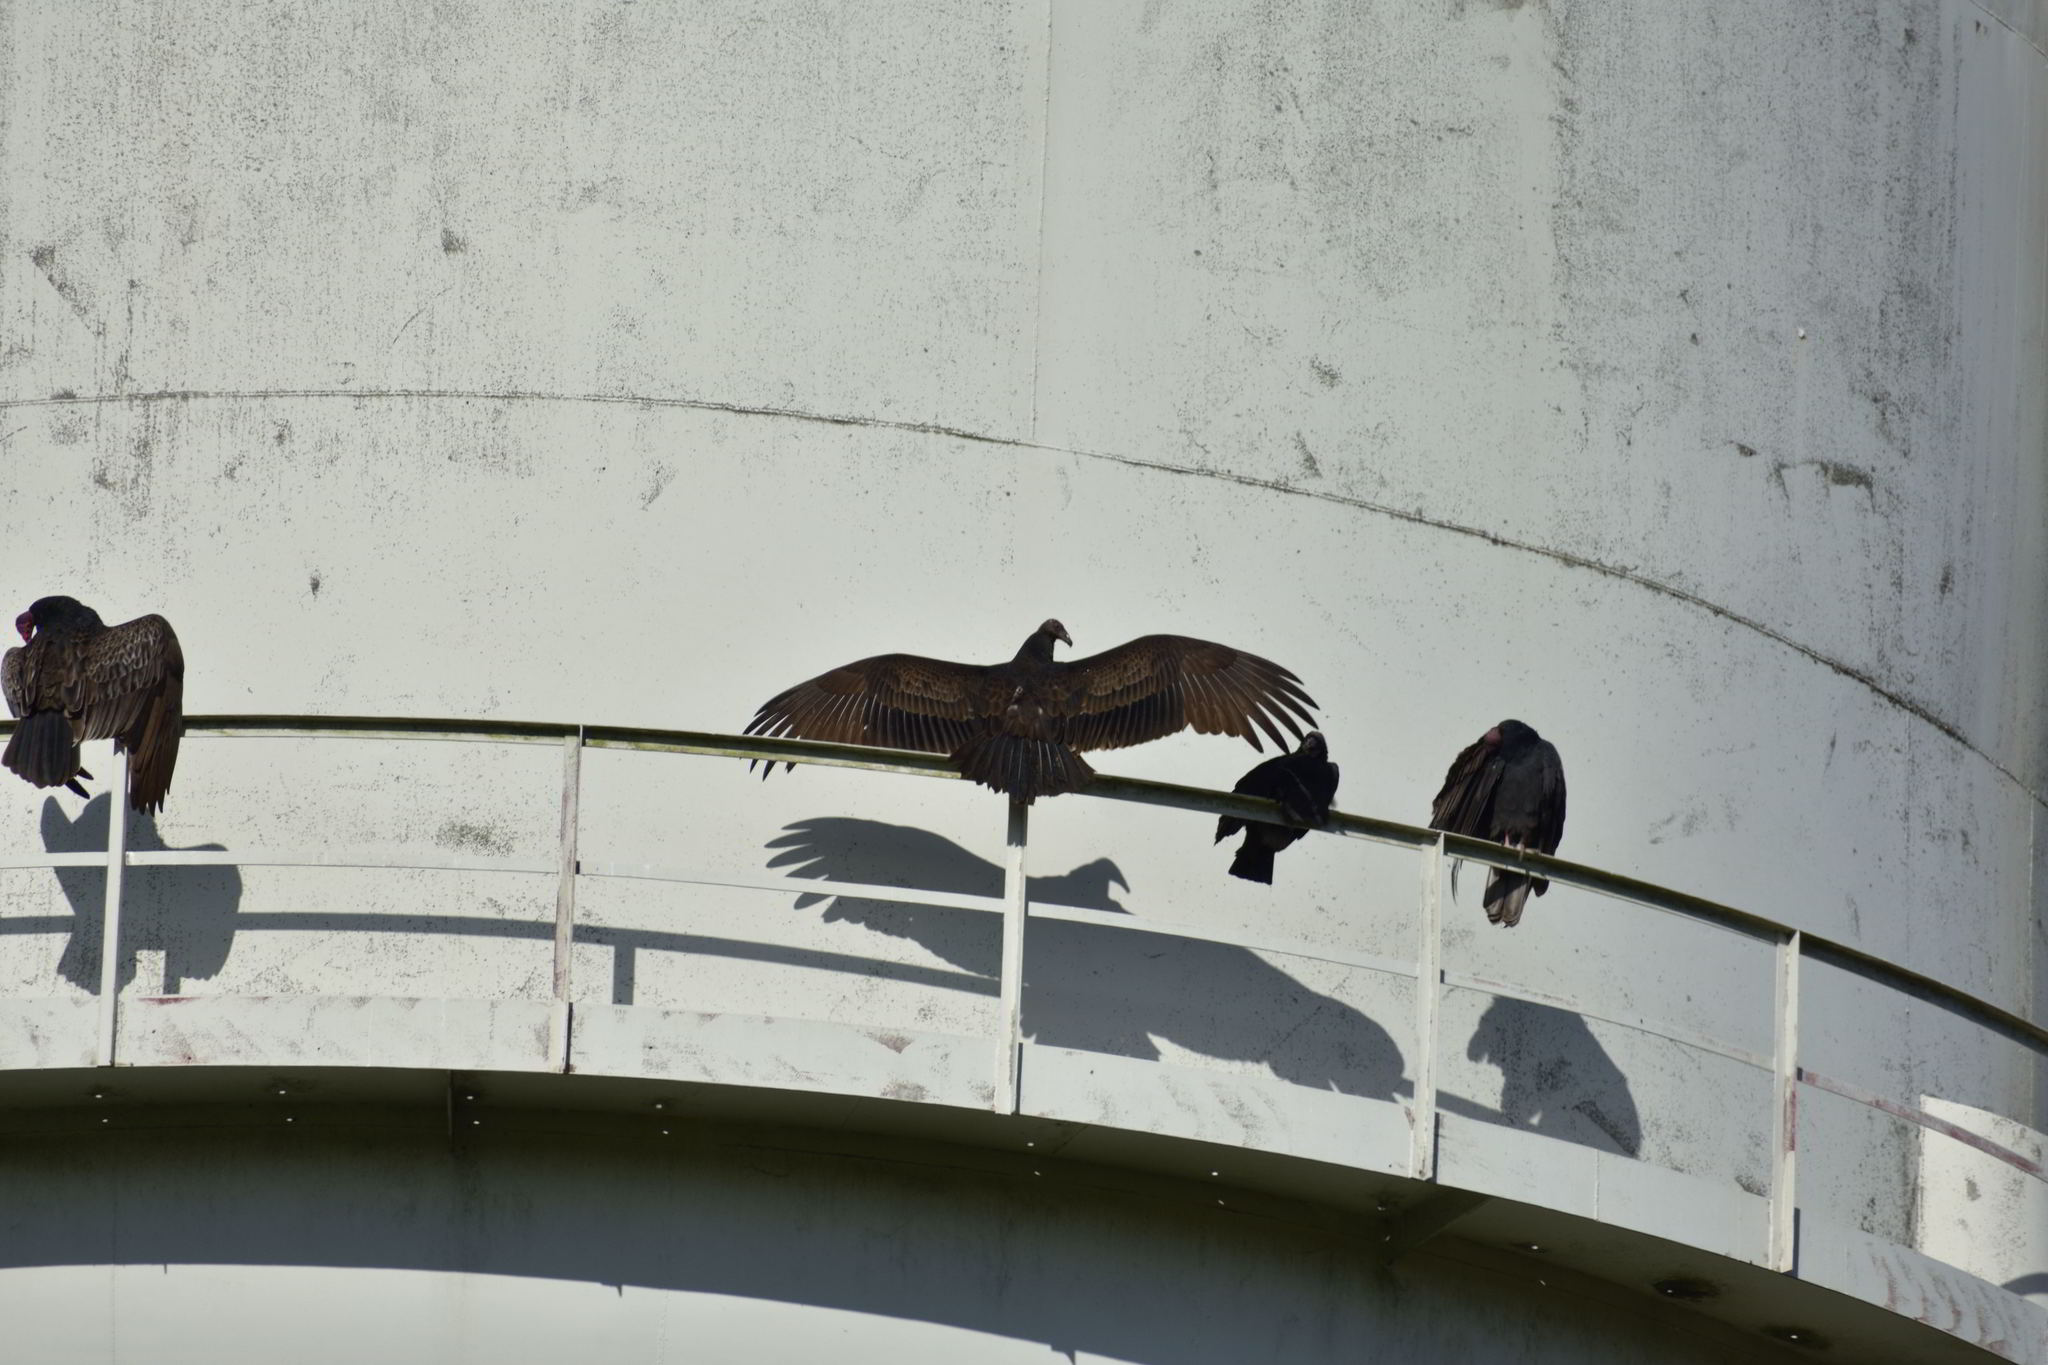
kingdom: Animalia
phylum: Chordata
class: Aves
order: Accipitriformes
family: Cathartidae
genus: Cathartes
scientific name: Cathartes aura
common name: Turkey vulture
